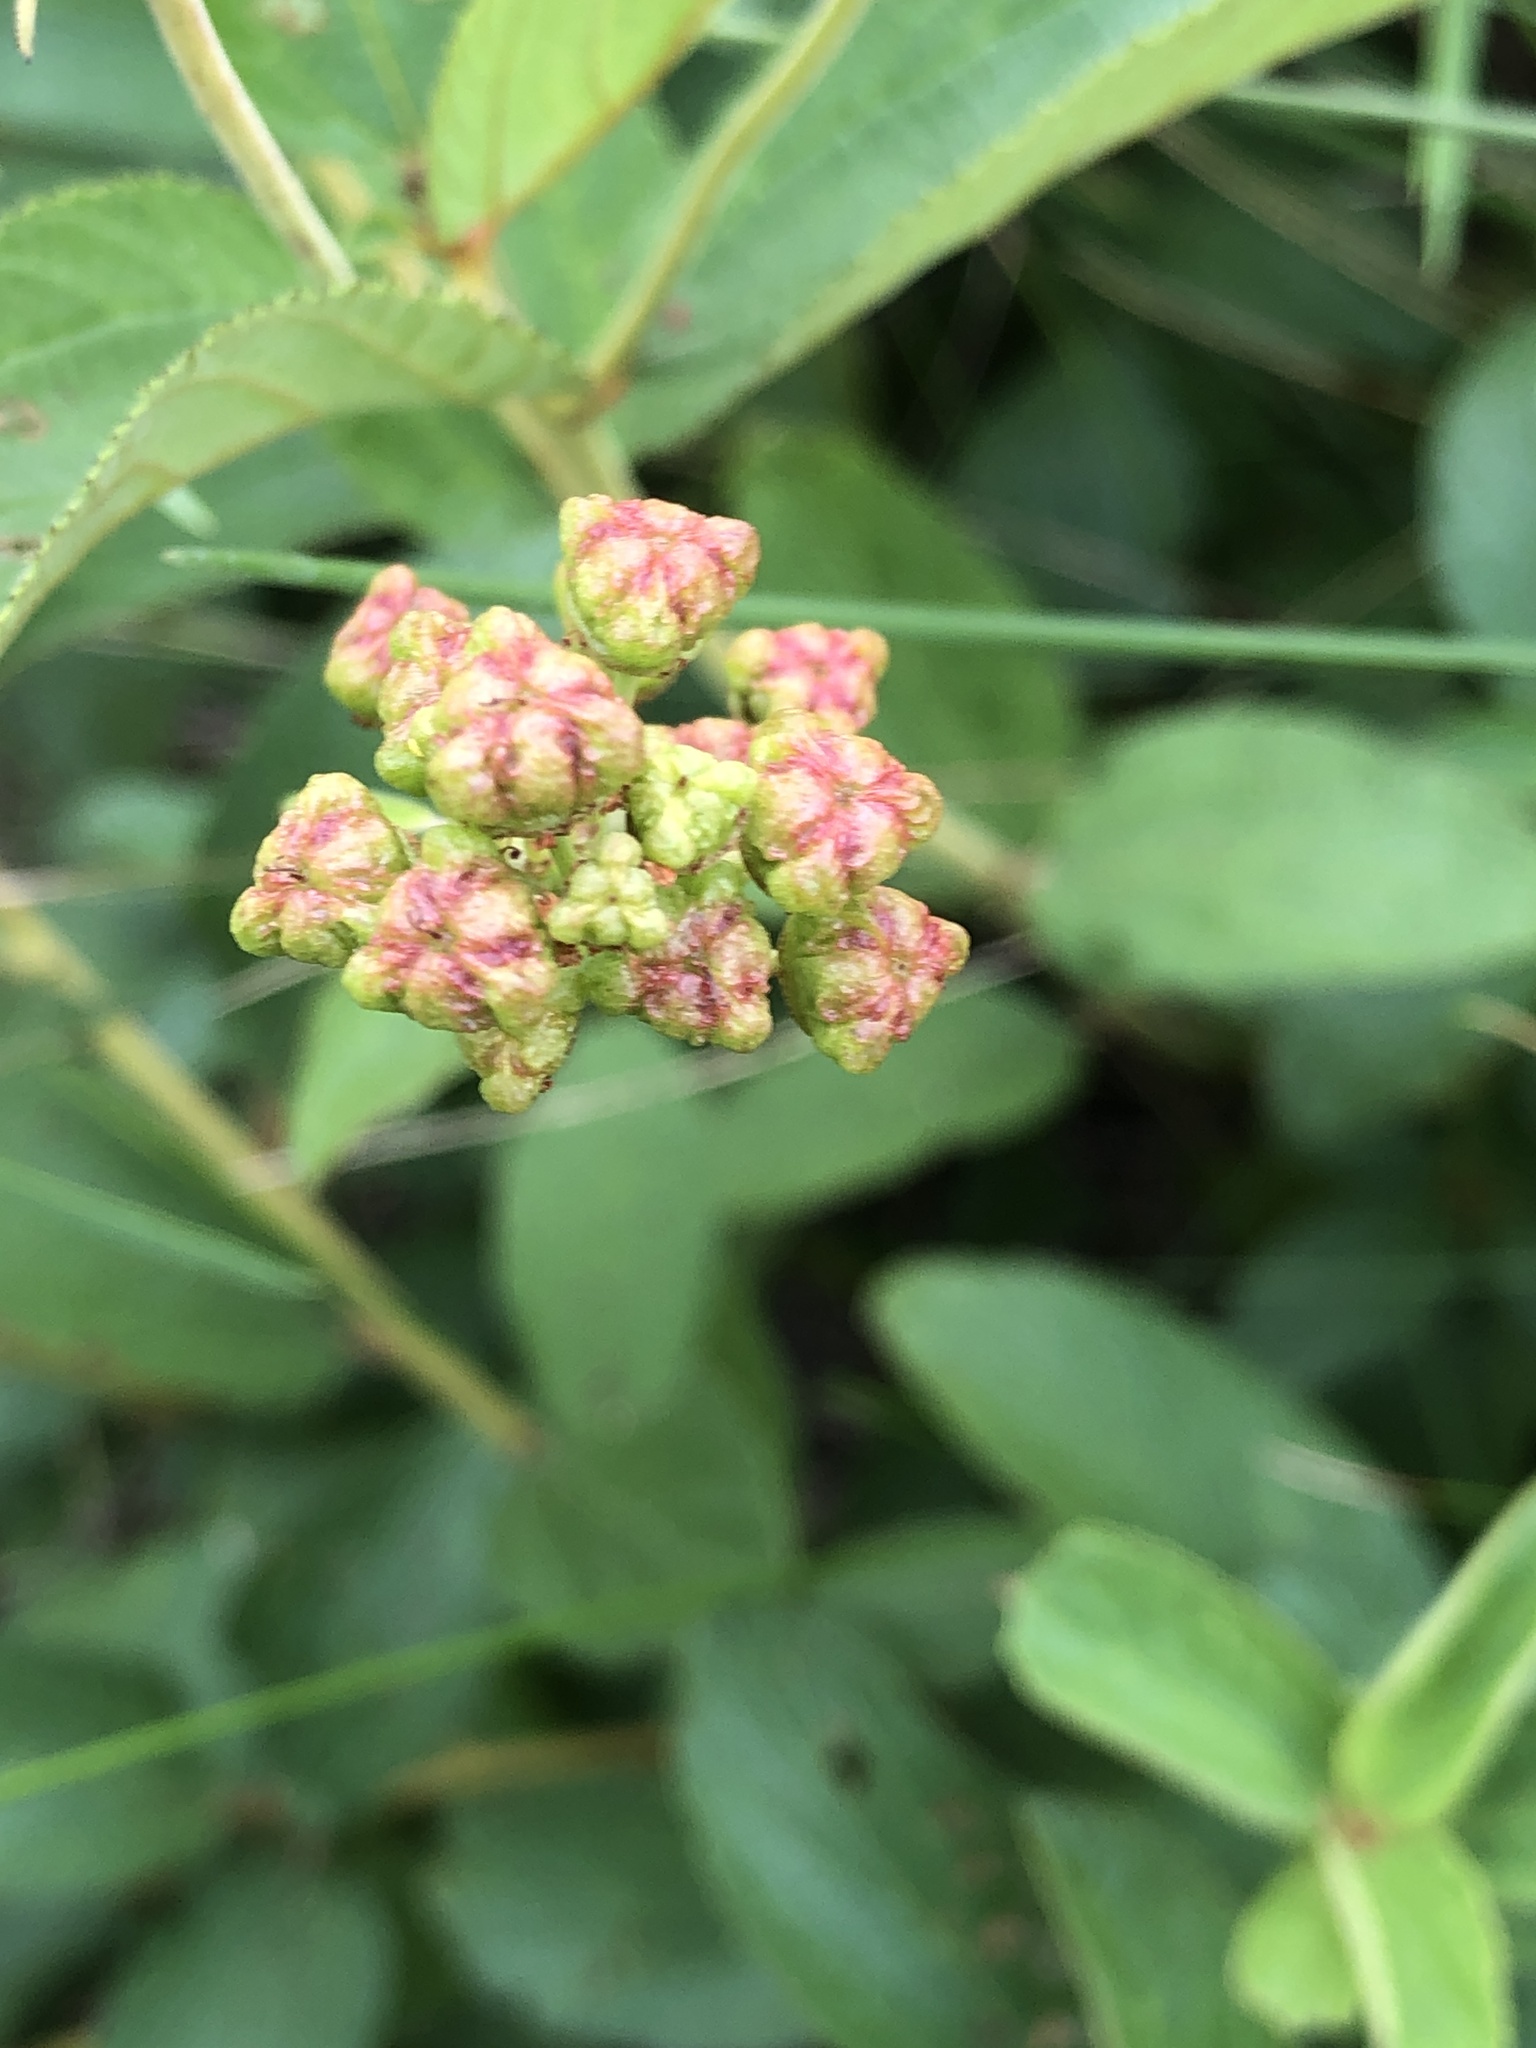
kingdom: Plantae
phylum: Tracheophyta
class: Magnoliopsida
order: Rosales
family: Rhamnaceae
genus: Ceanothus
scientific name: Ceanothus americanus
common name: Redroot
